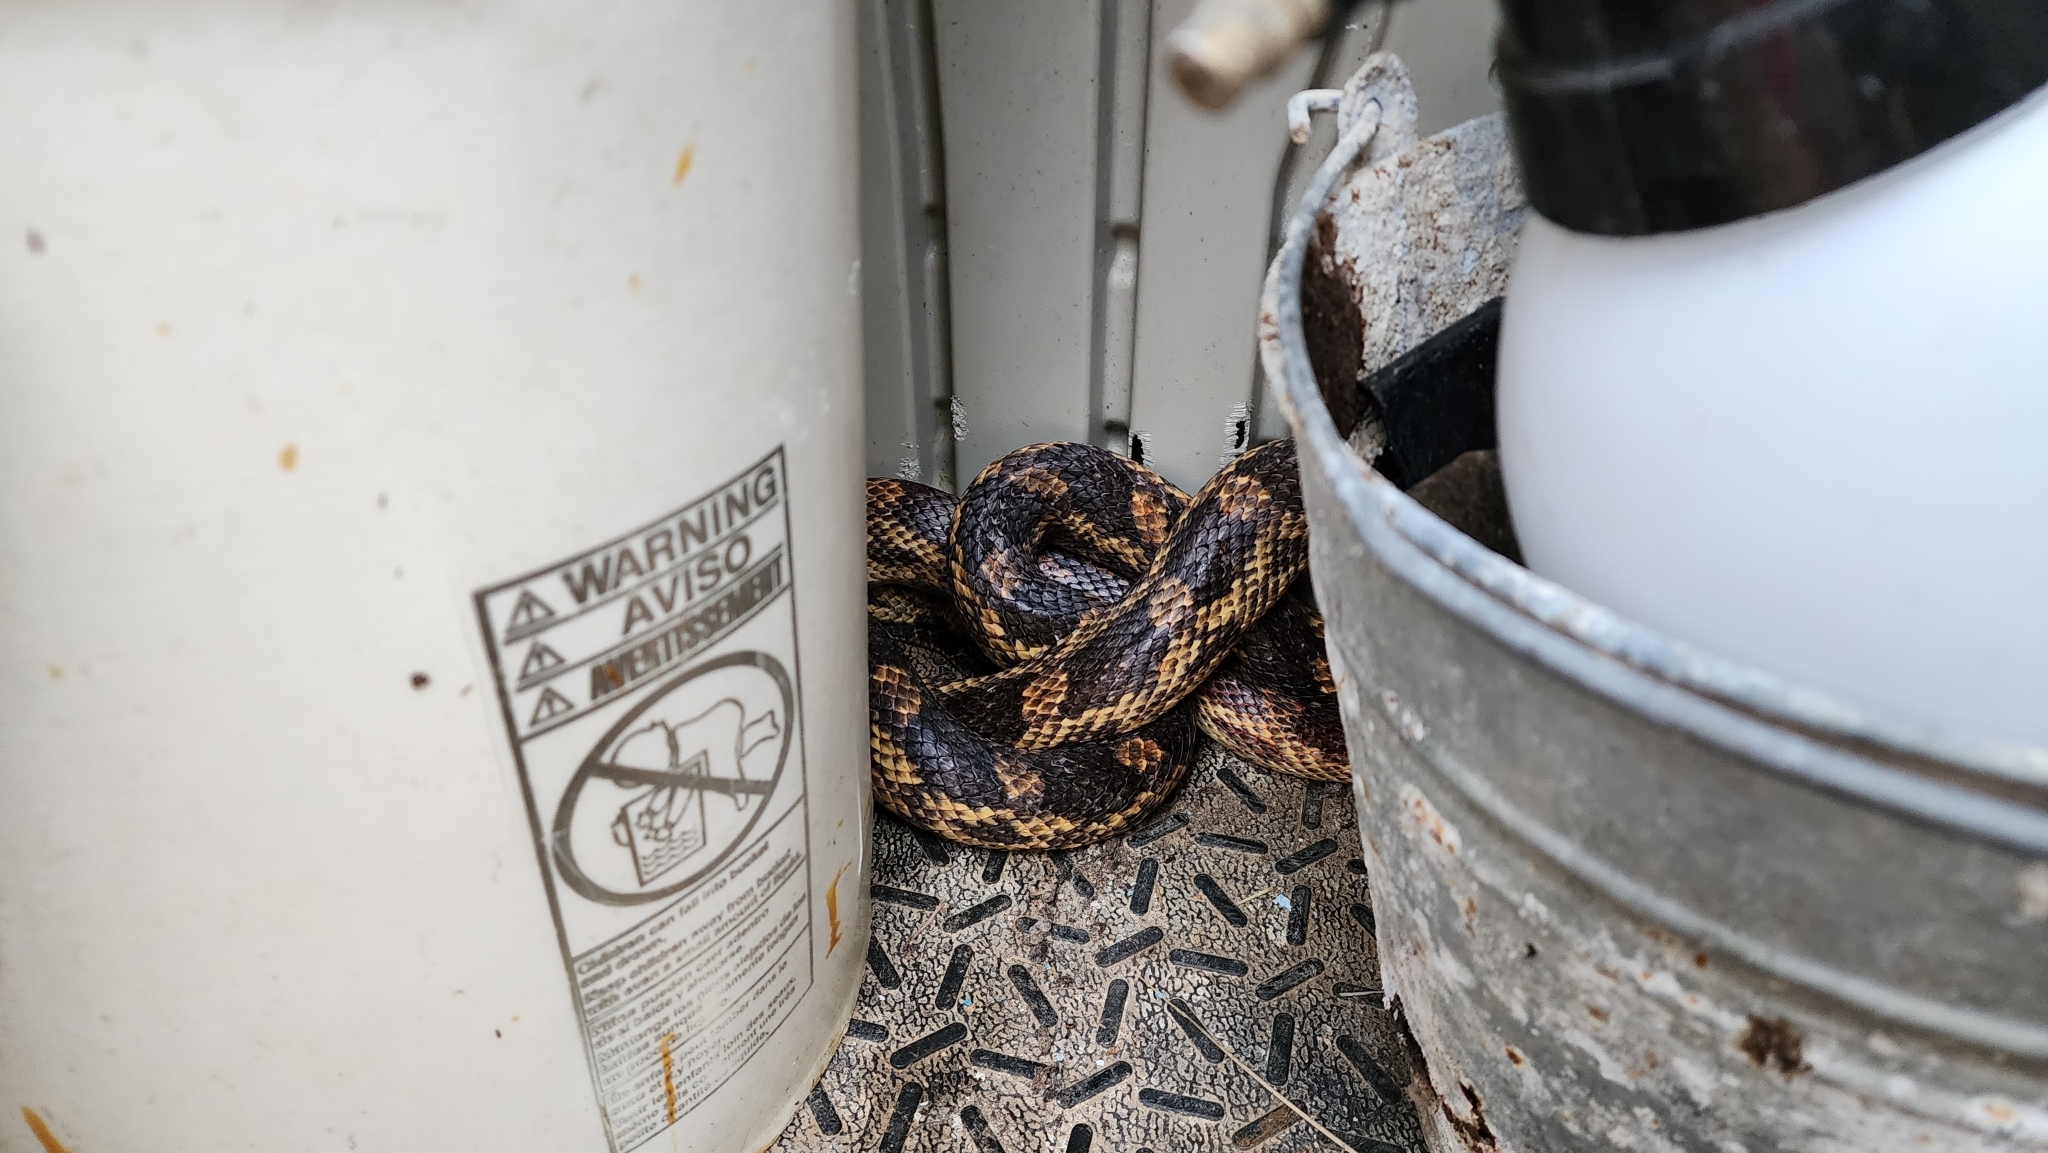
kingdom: Animalia
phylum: Chordata
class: Squamata
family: Colubridae
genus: Pantherophis
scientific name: Pantherophis obsoletus
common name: Black rat snake
